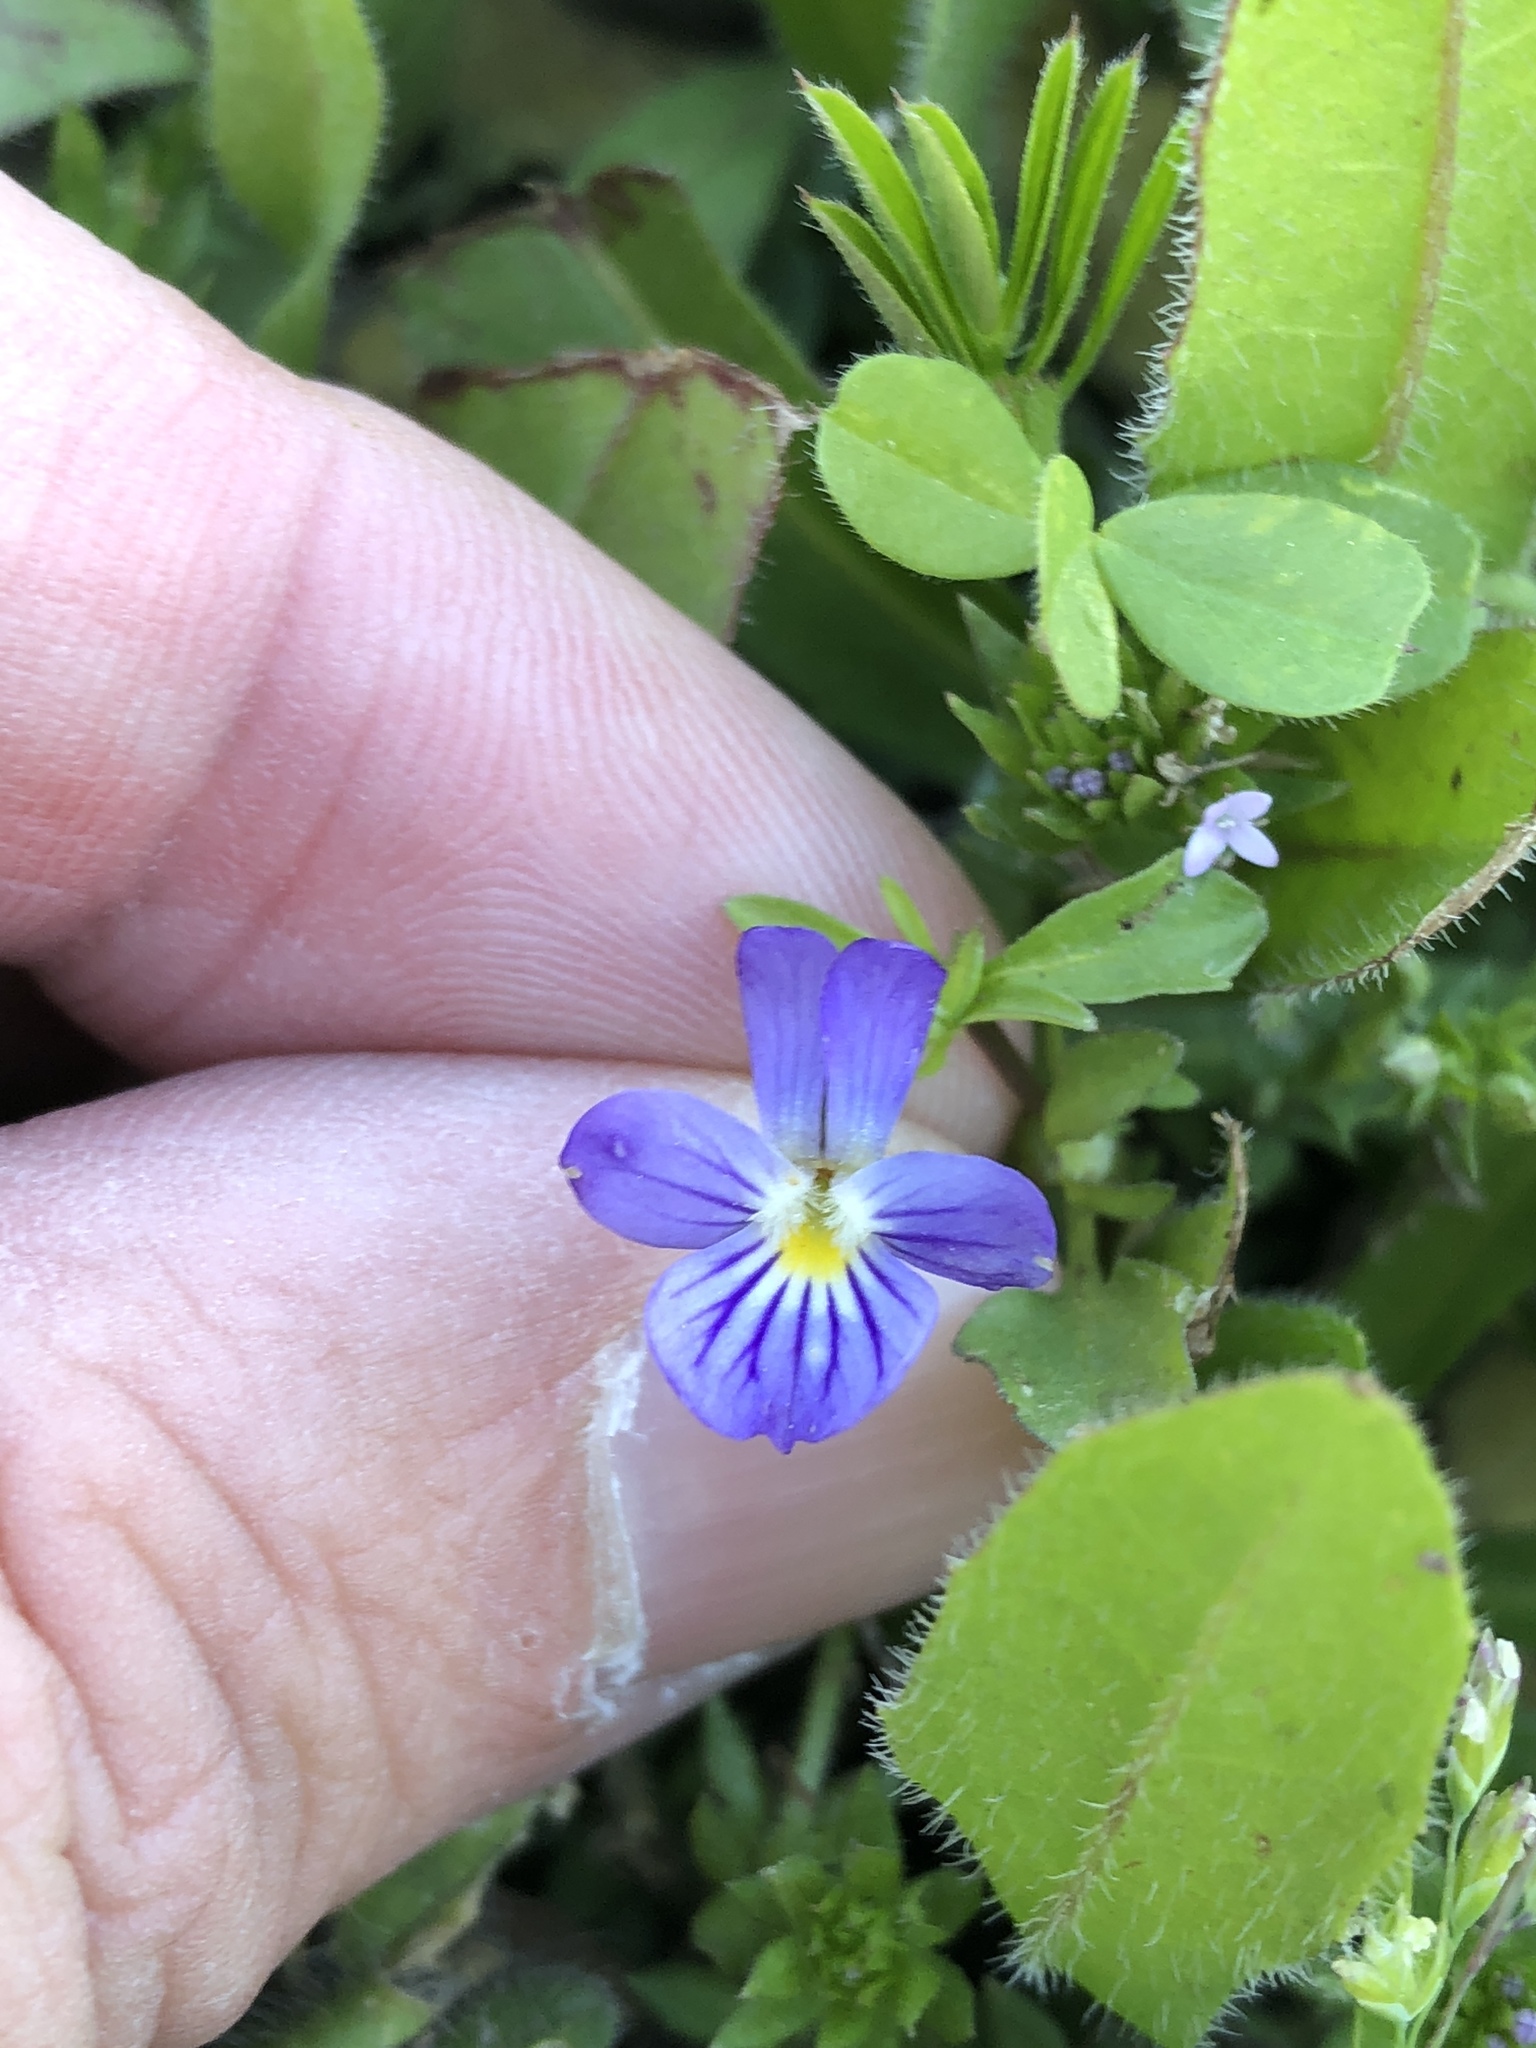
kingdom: Plantae
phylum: Tracheophyta
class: Magnoliopsida
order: Malpighiales
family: Violaceae
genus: Viola
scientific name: Viola rafinesquei
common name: American field pansy
